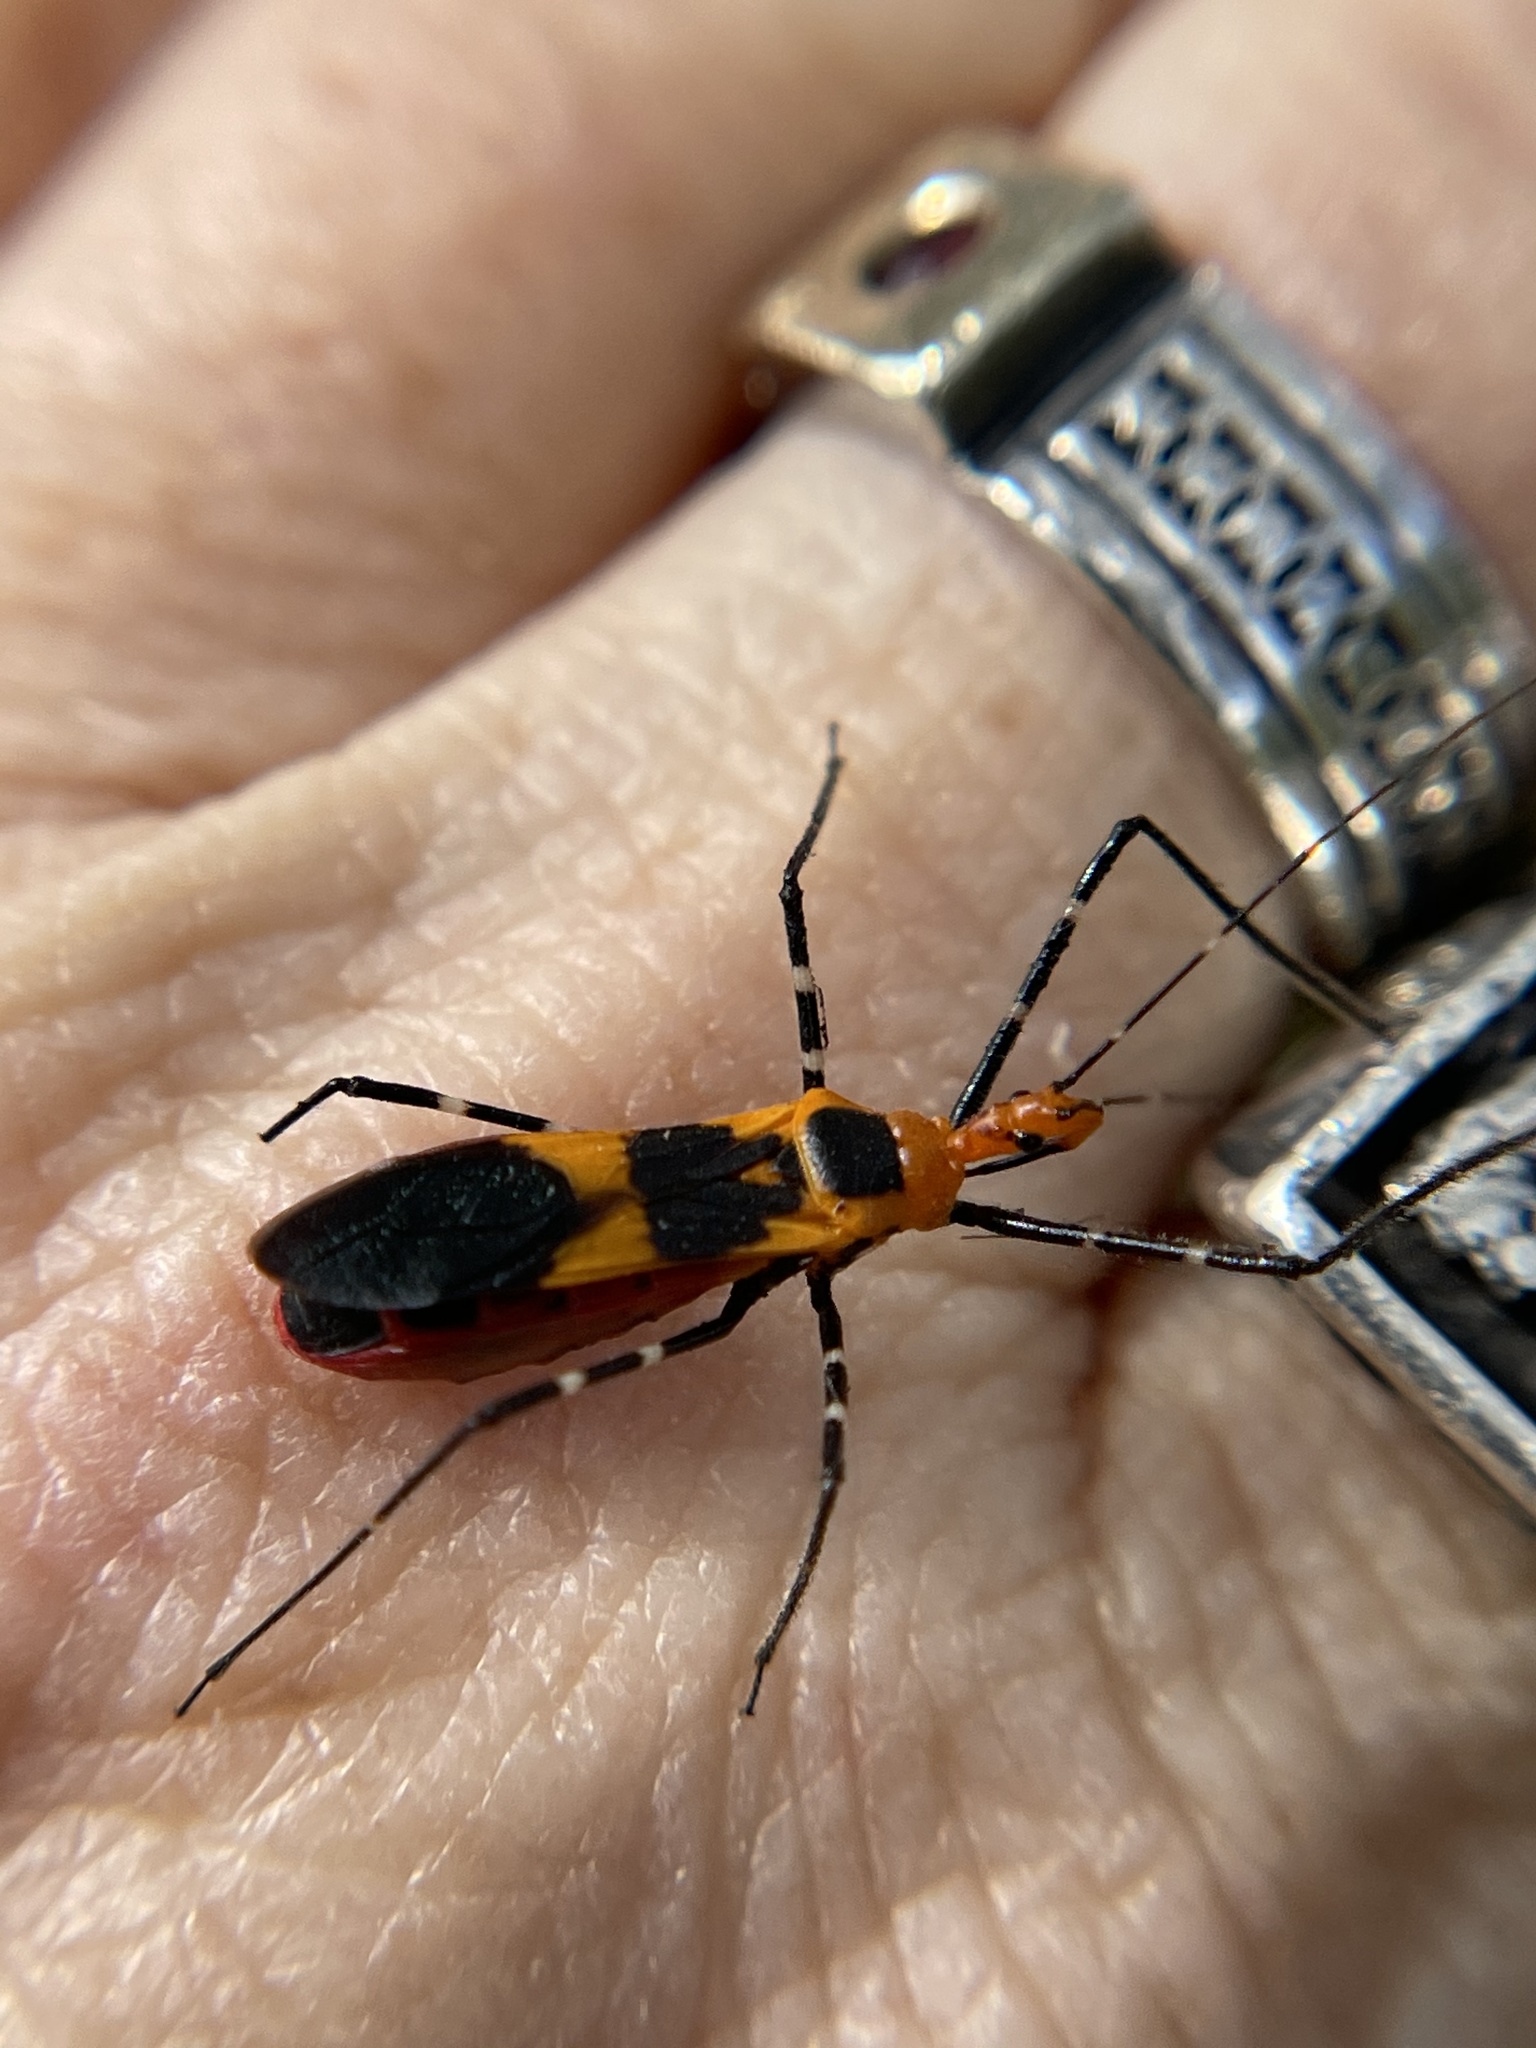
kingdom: Animalia
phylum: Arthropoda
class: Insecta
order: Hemiptera
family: Reduviidae
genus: Zelus
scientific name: Zelus longipes
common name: Milkweed assassin bug
